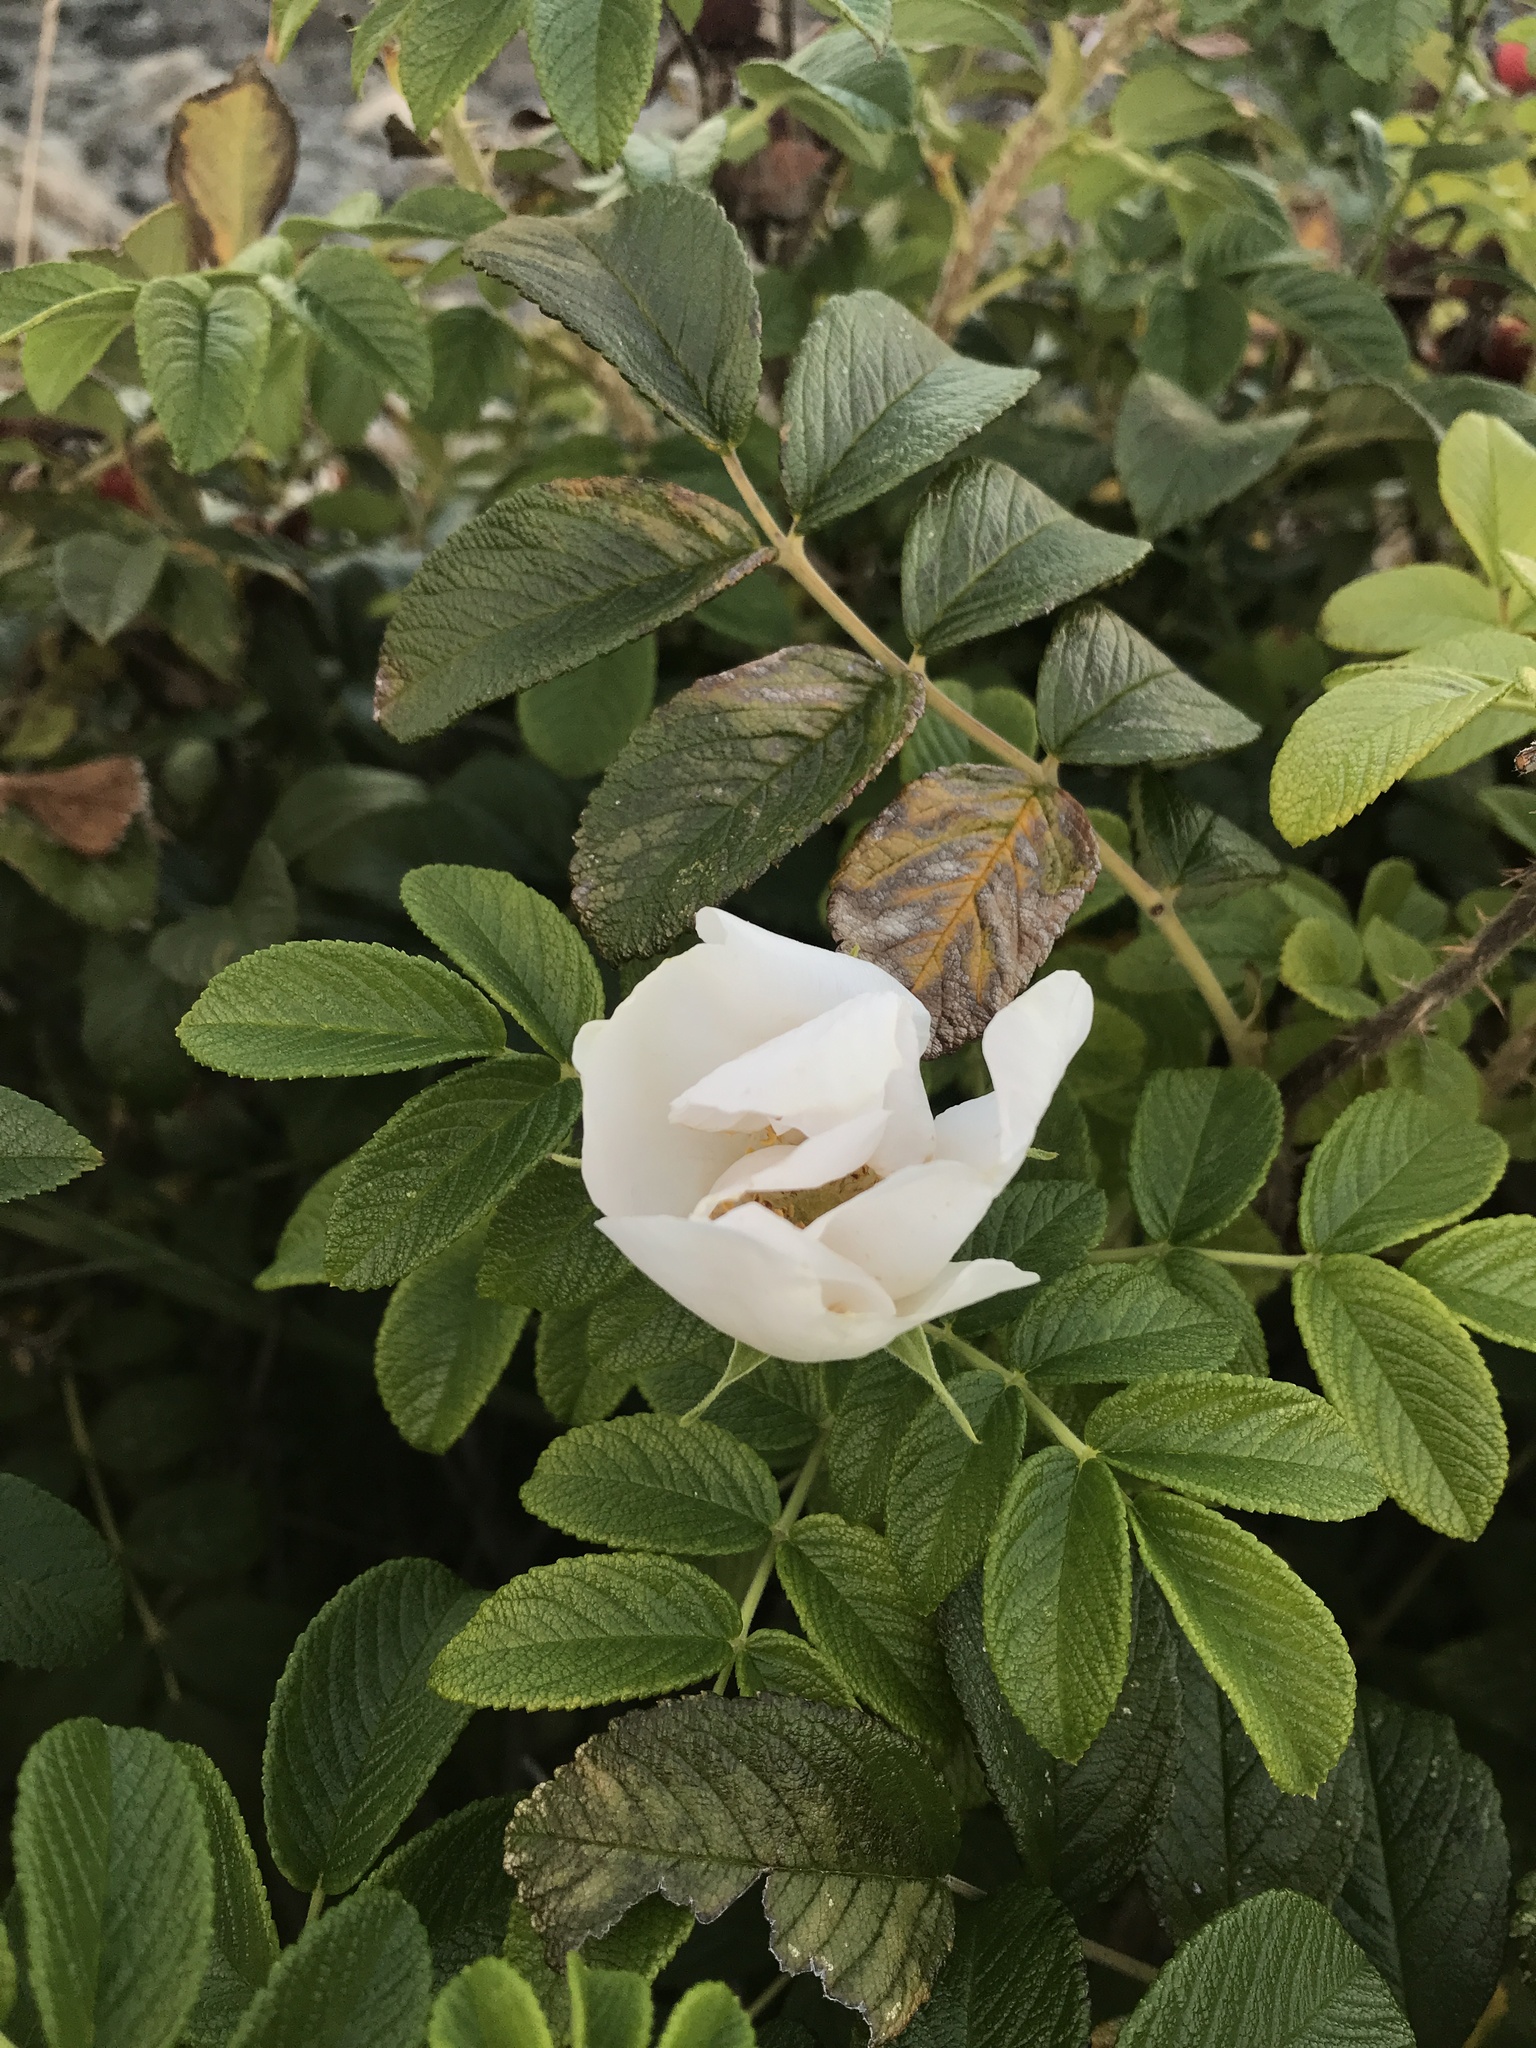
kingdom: Plantae
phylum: Tracheophyta
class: Magnoliopsida
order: Rosales
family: Rosaceae
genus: Rosa
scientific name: Rosa rugosa
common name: Japanese rose
